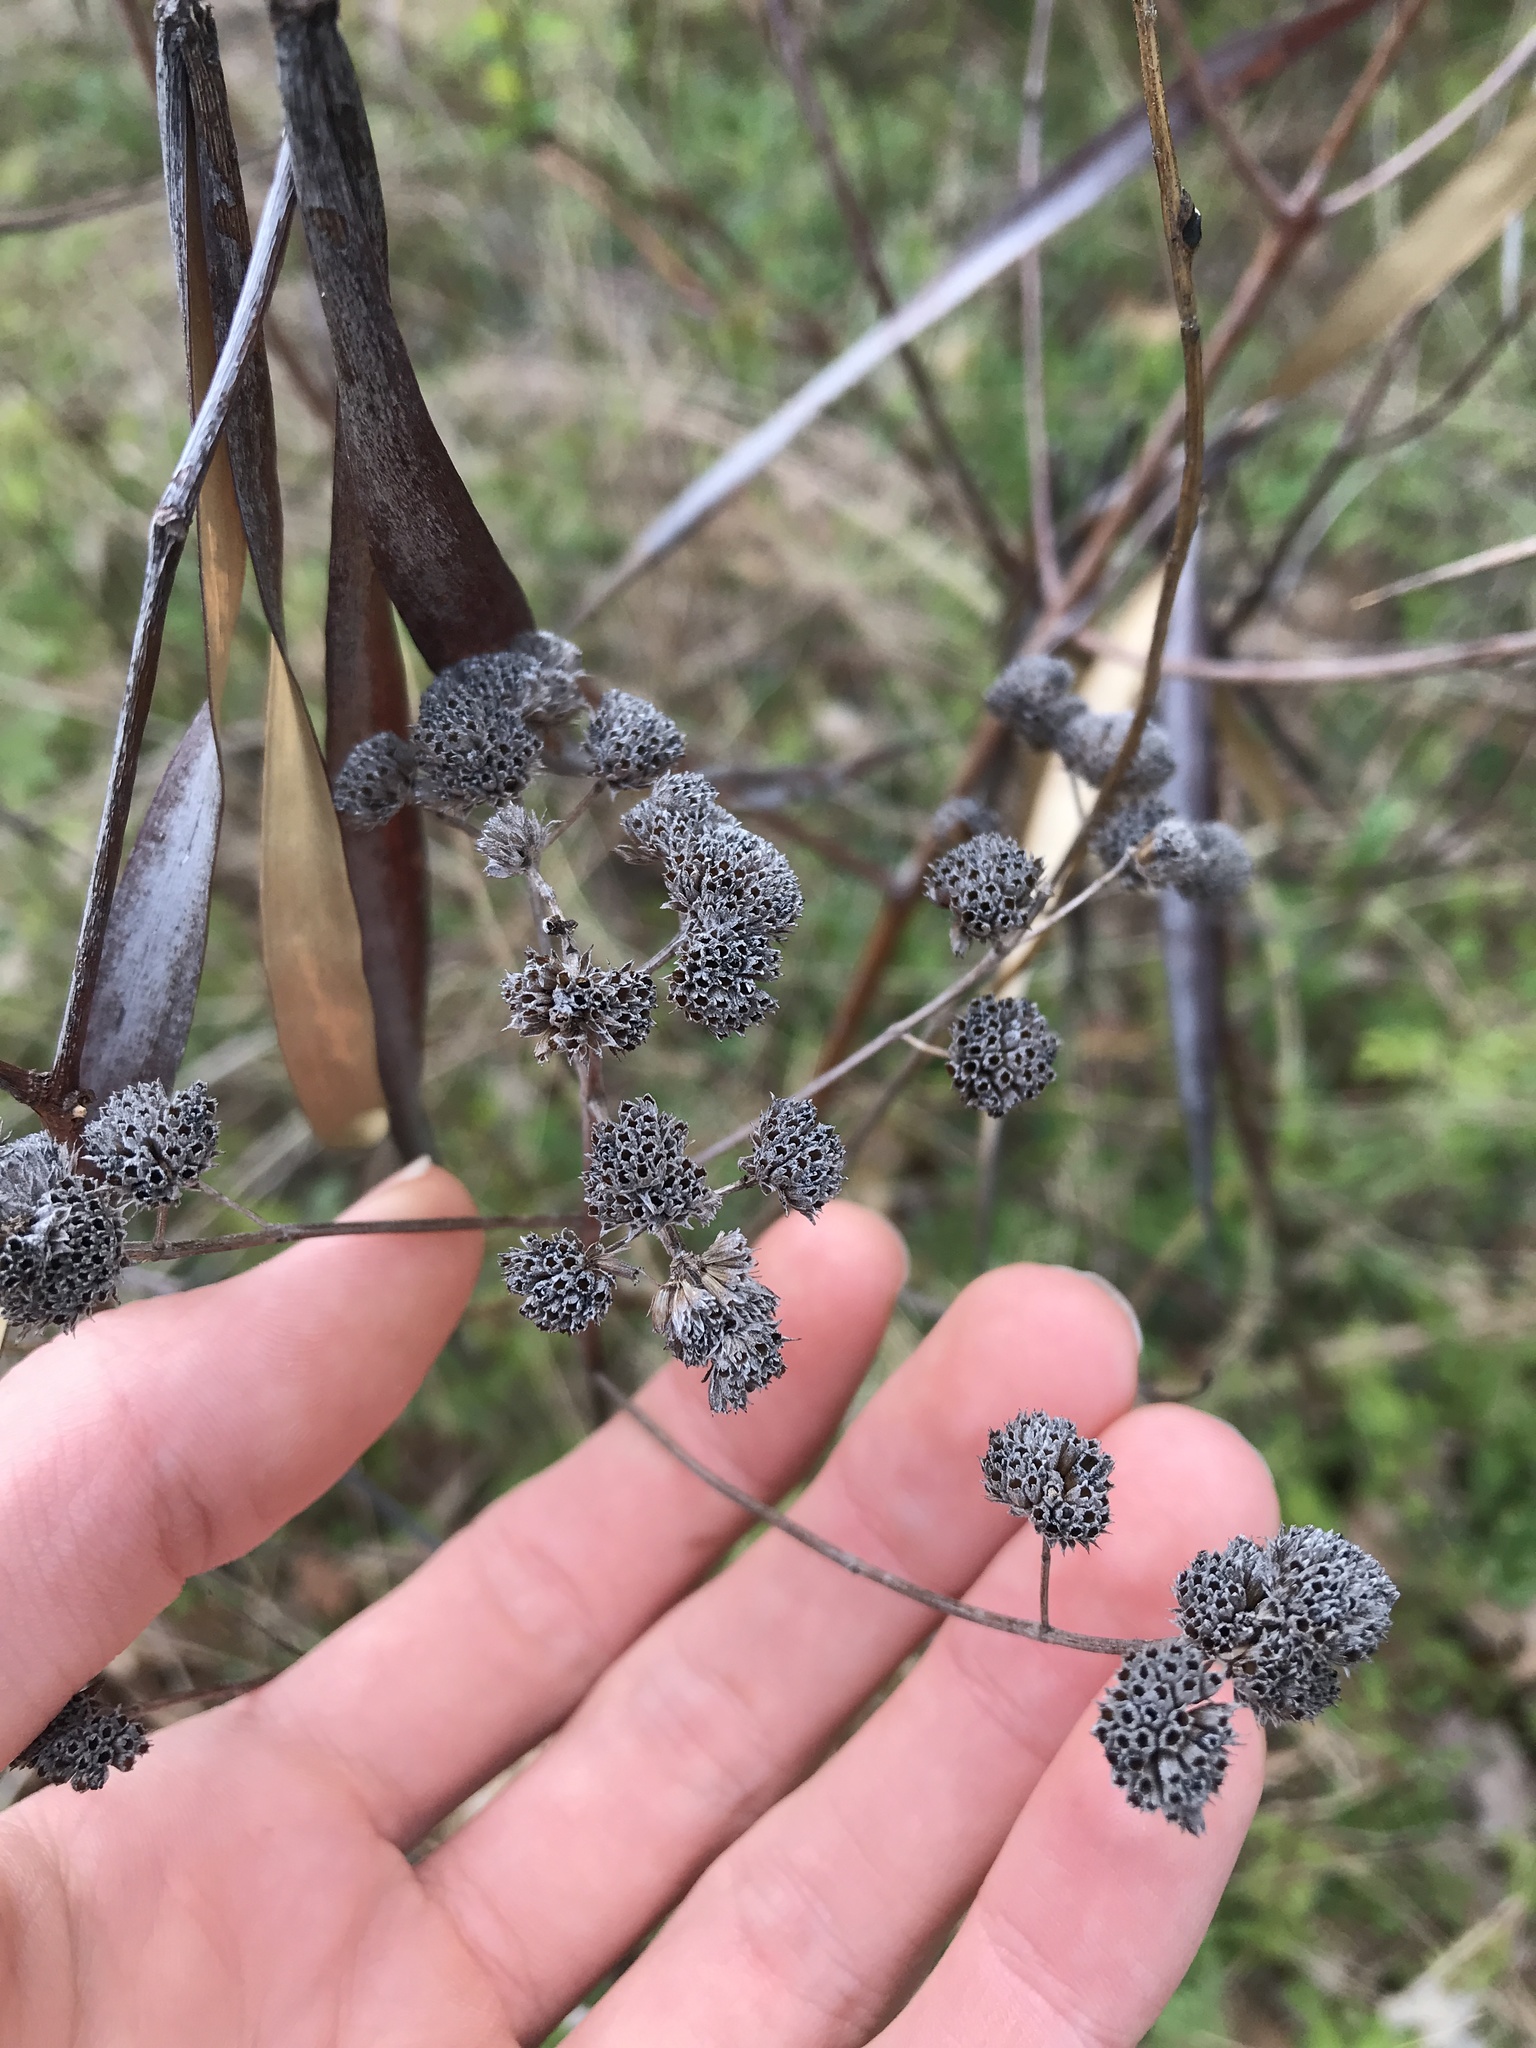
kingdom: Plantae
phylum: Tracheophyta
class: Magnoliopsida
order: Lamiales
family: Lamiaceae
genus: Pycnanthemum
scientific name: Pycnanthemum
